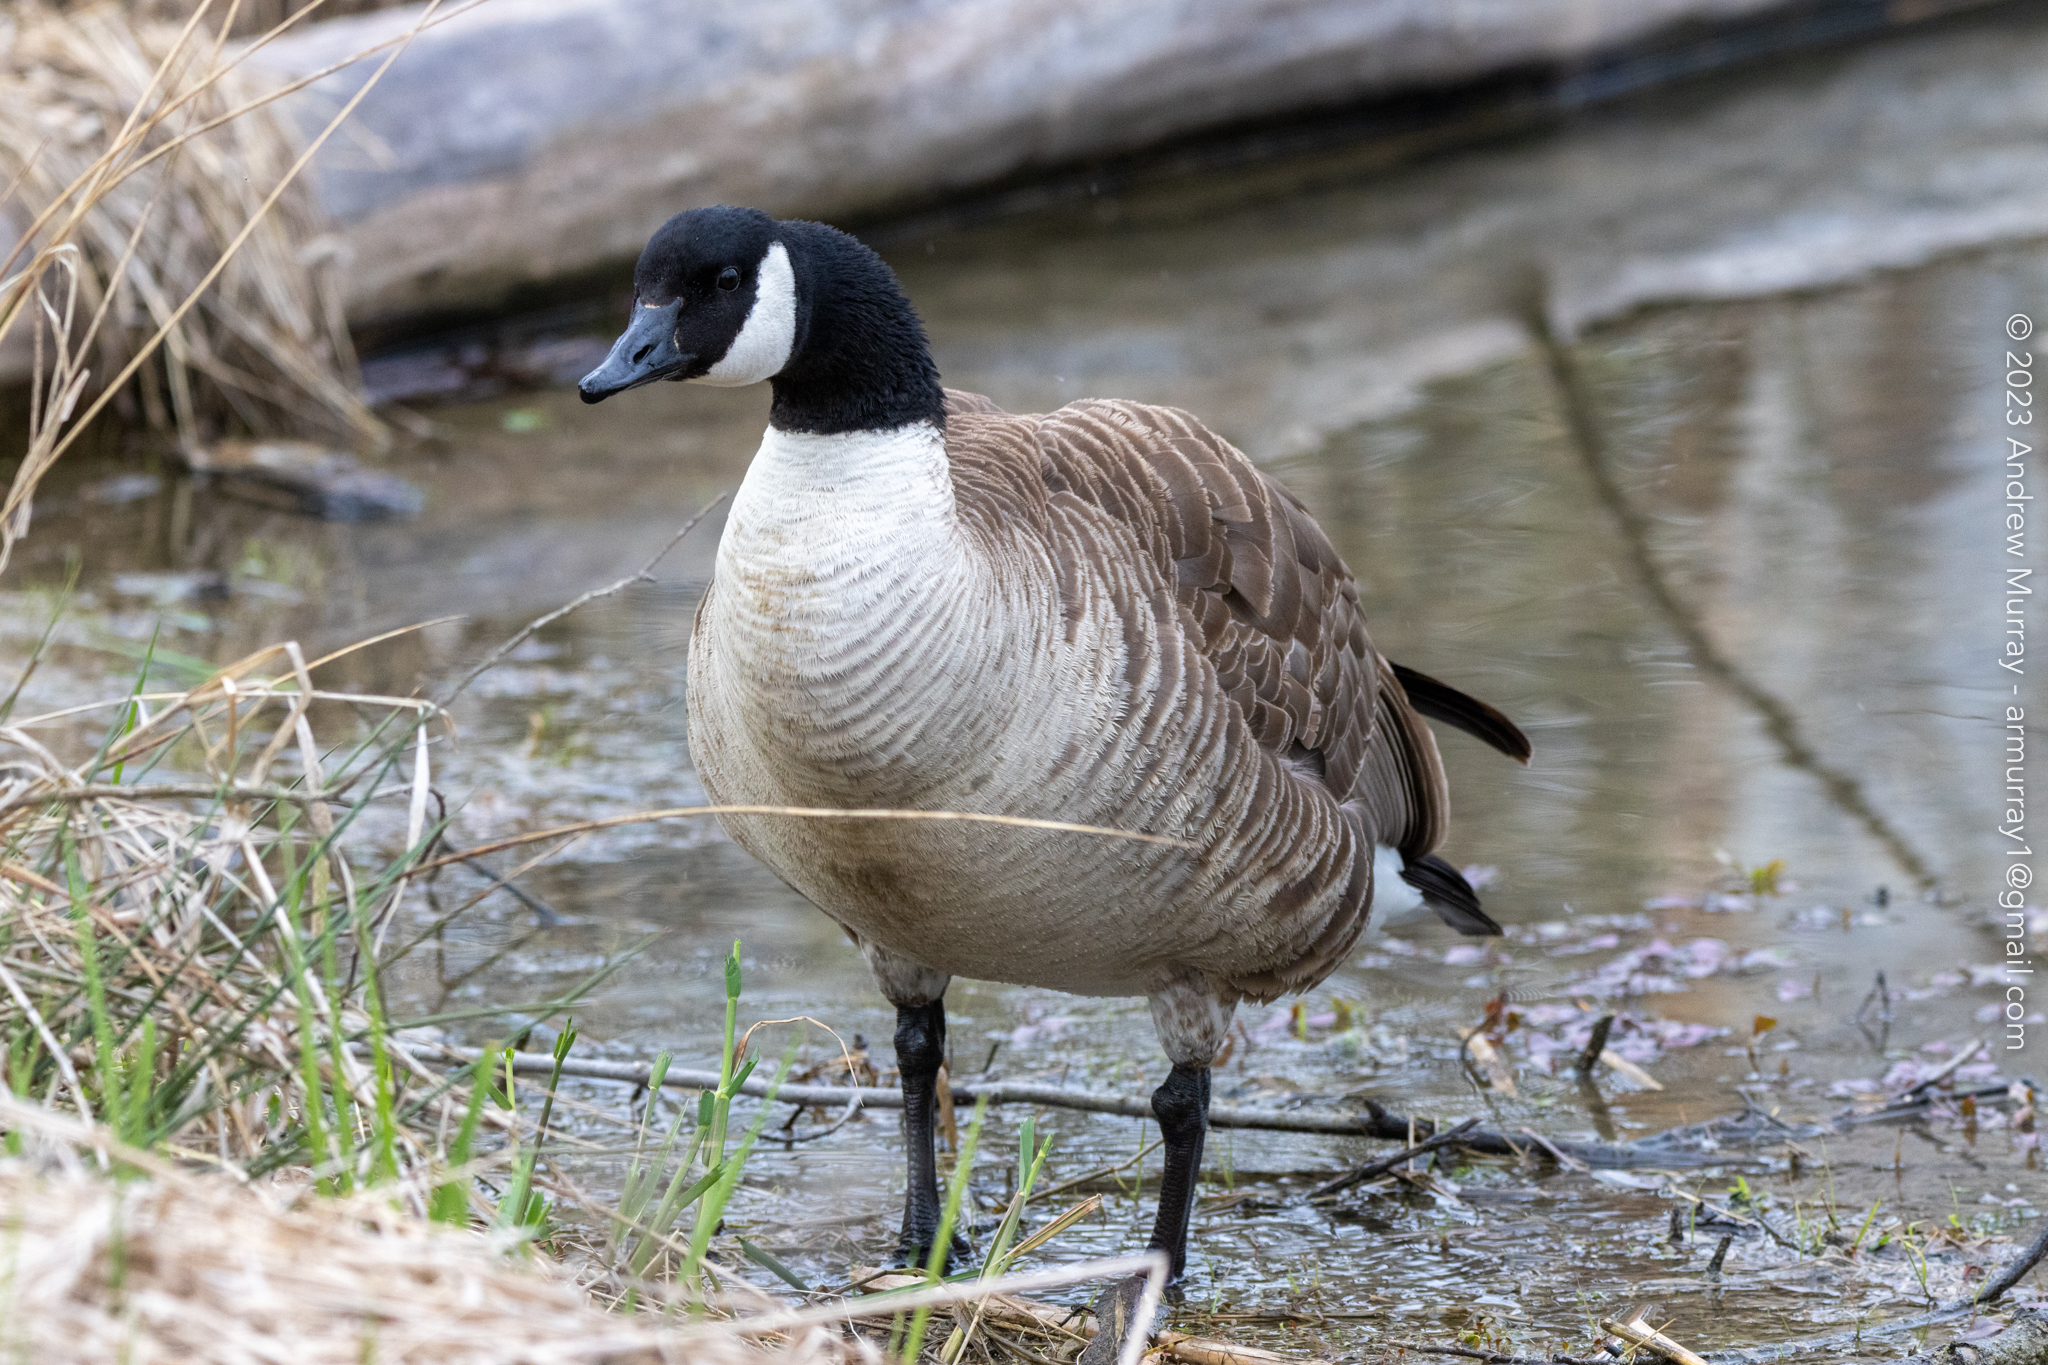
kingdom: Animalia
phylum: Chordata
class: Aves
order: Anseriformes
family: Anatidae
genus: Branta
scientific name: Branta canadensis
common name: Canada goose
